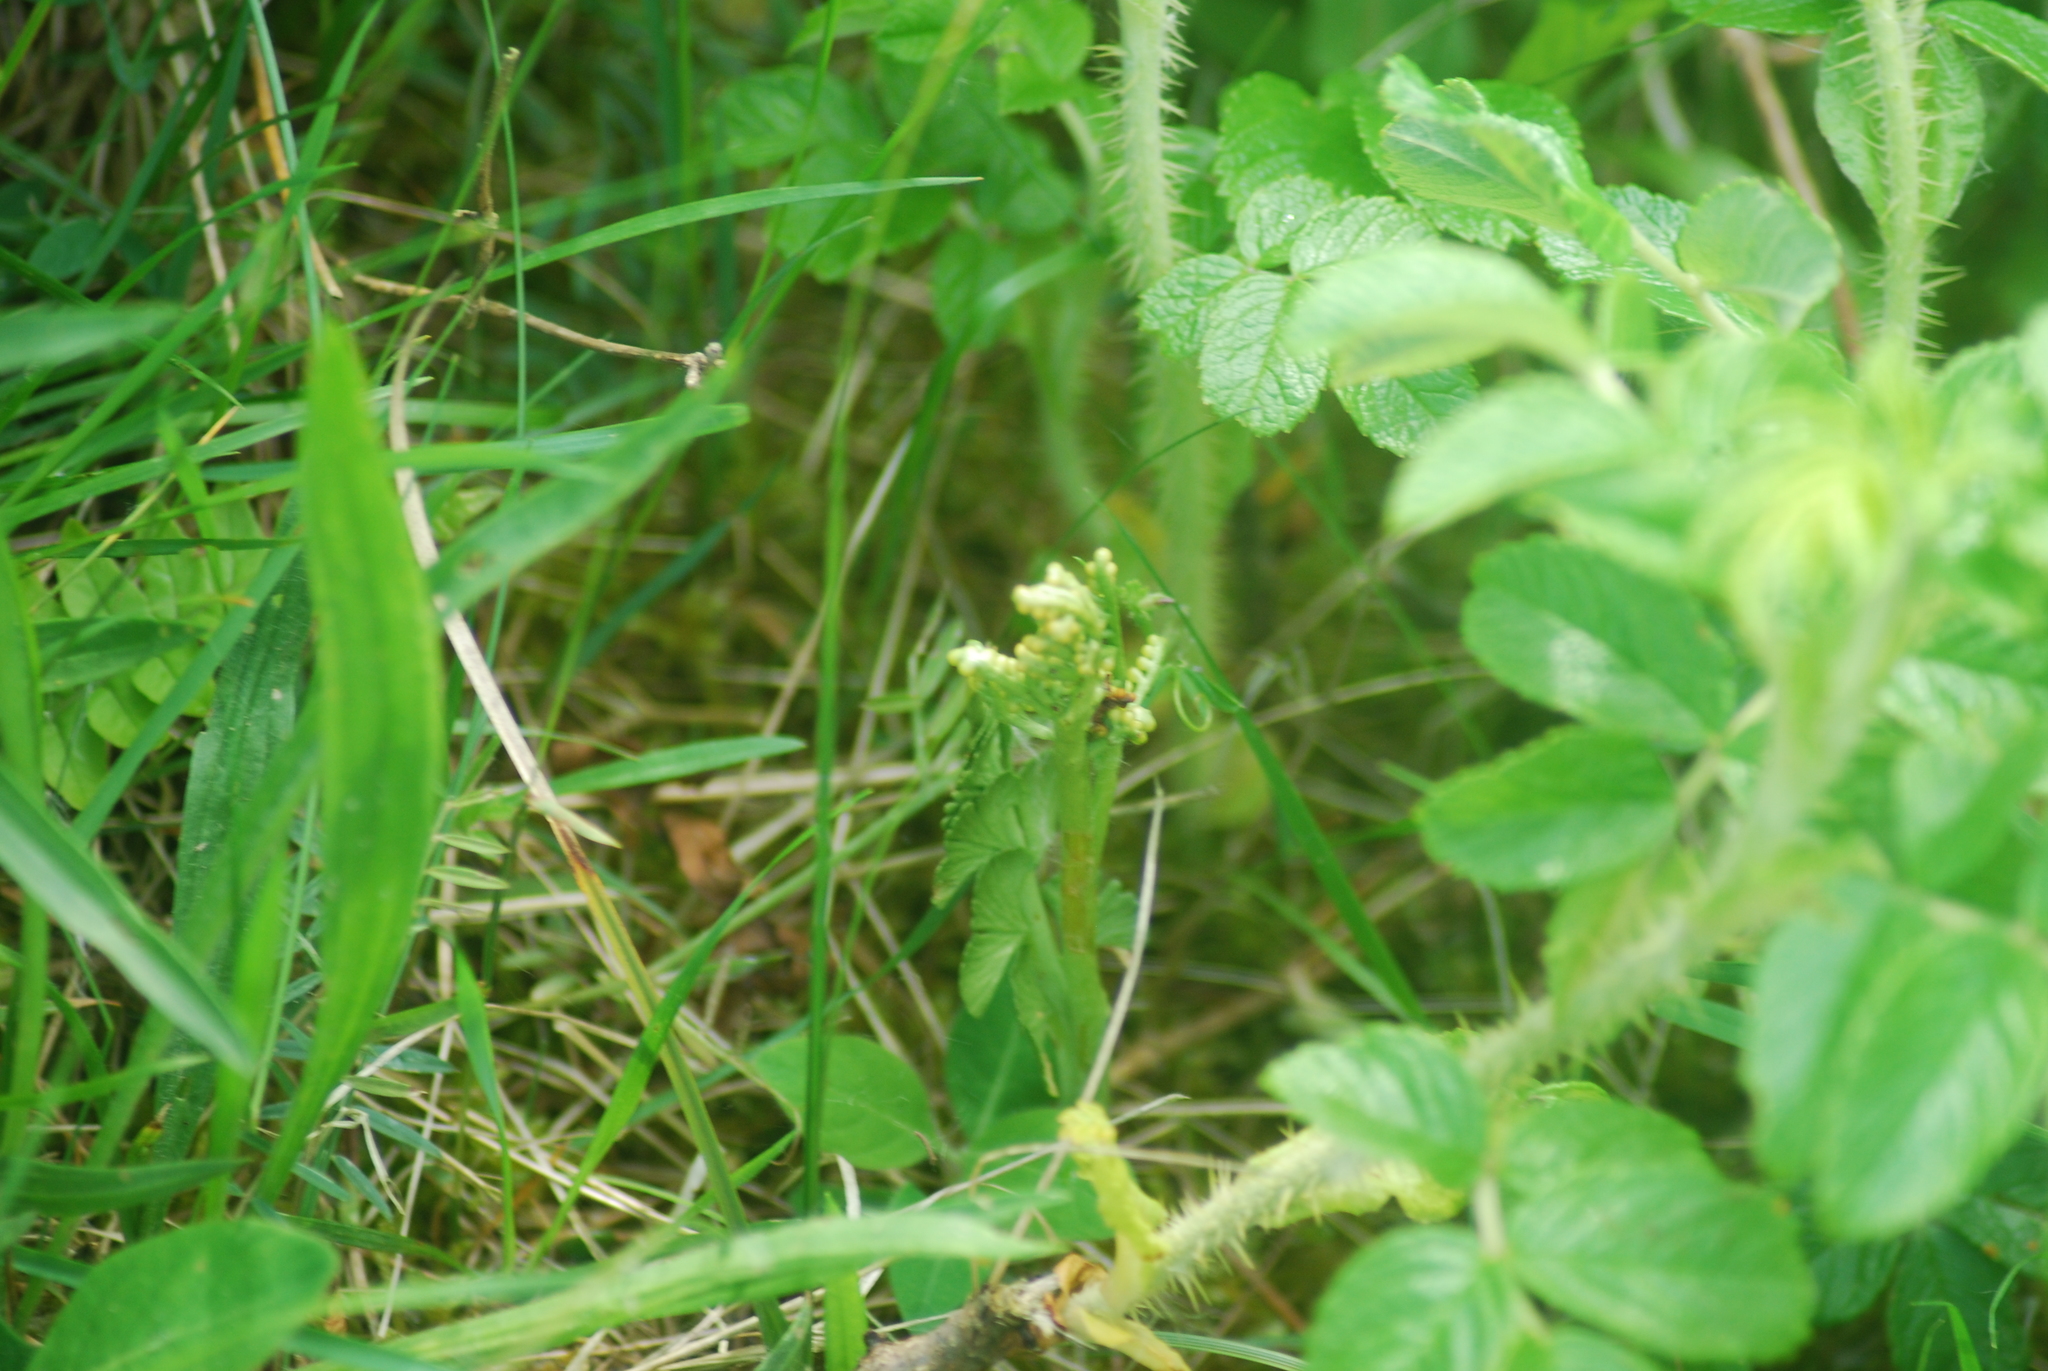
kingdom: Plantae
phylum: Tracheophyta
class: Polypodiopsida
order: Ophioglossales
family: Ophioglossaceae
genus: Botrychium
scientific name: Botrychium lunaria
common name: Moonwort
